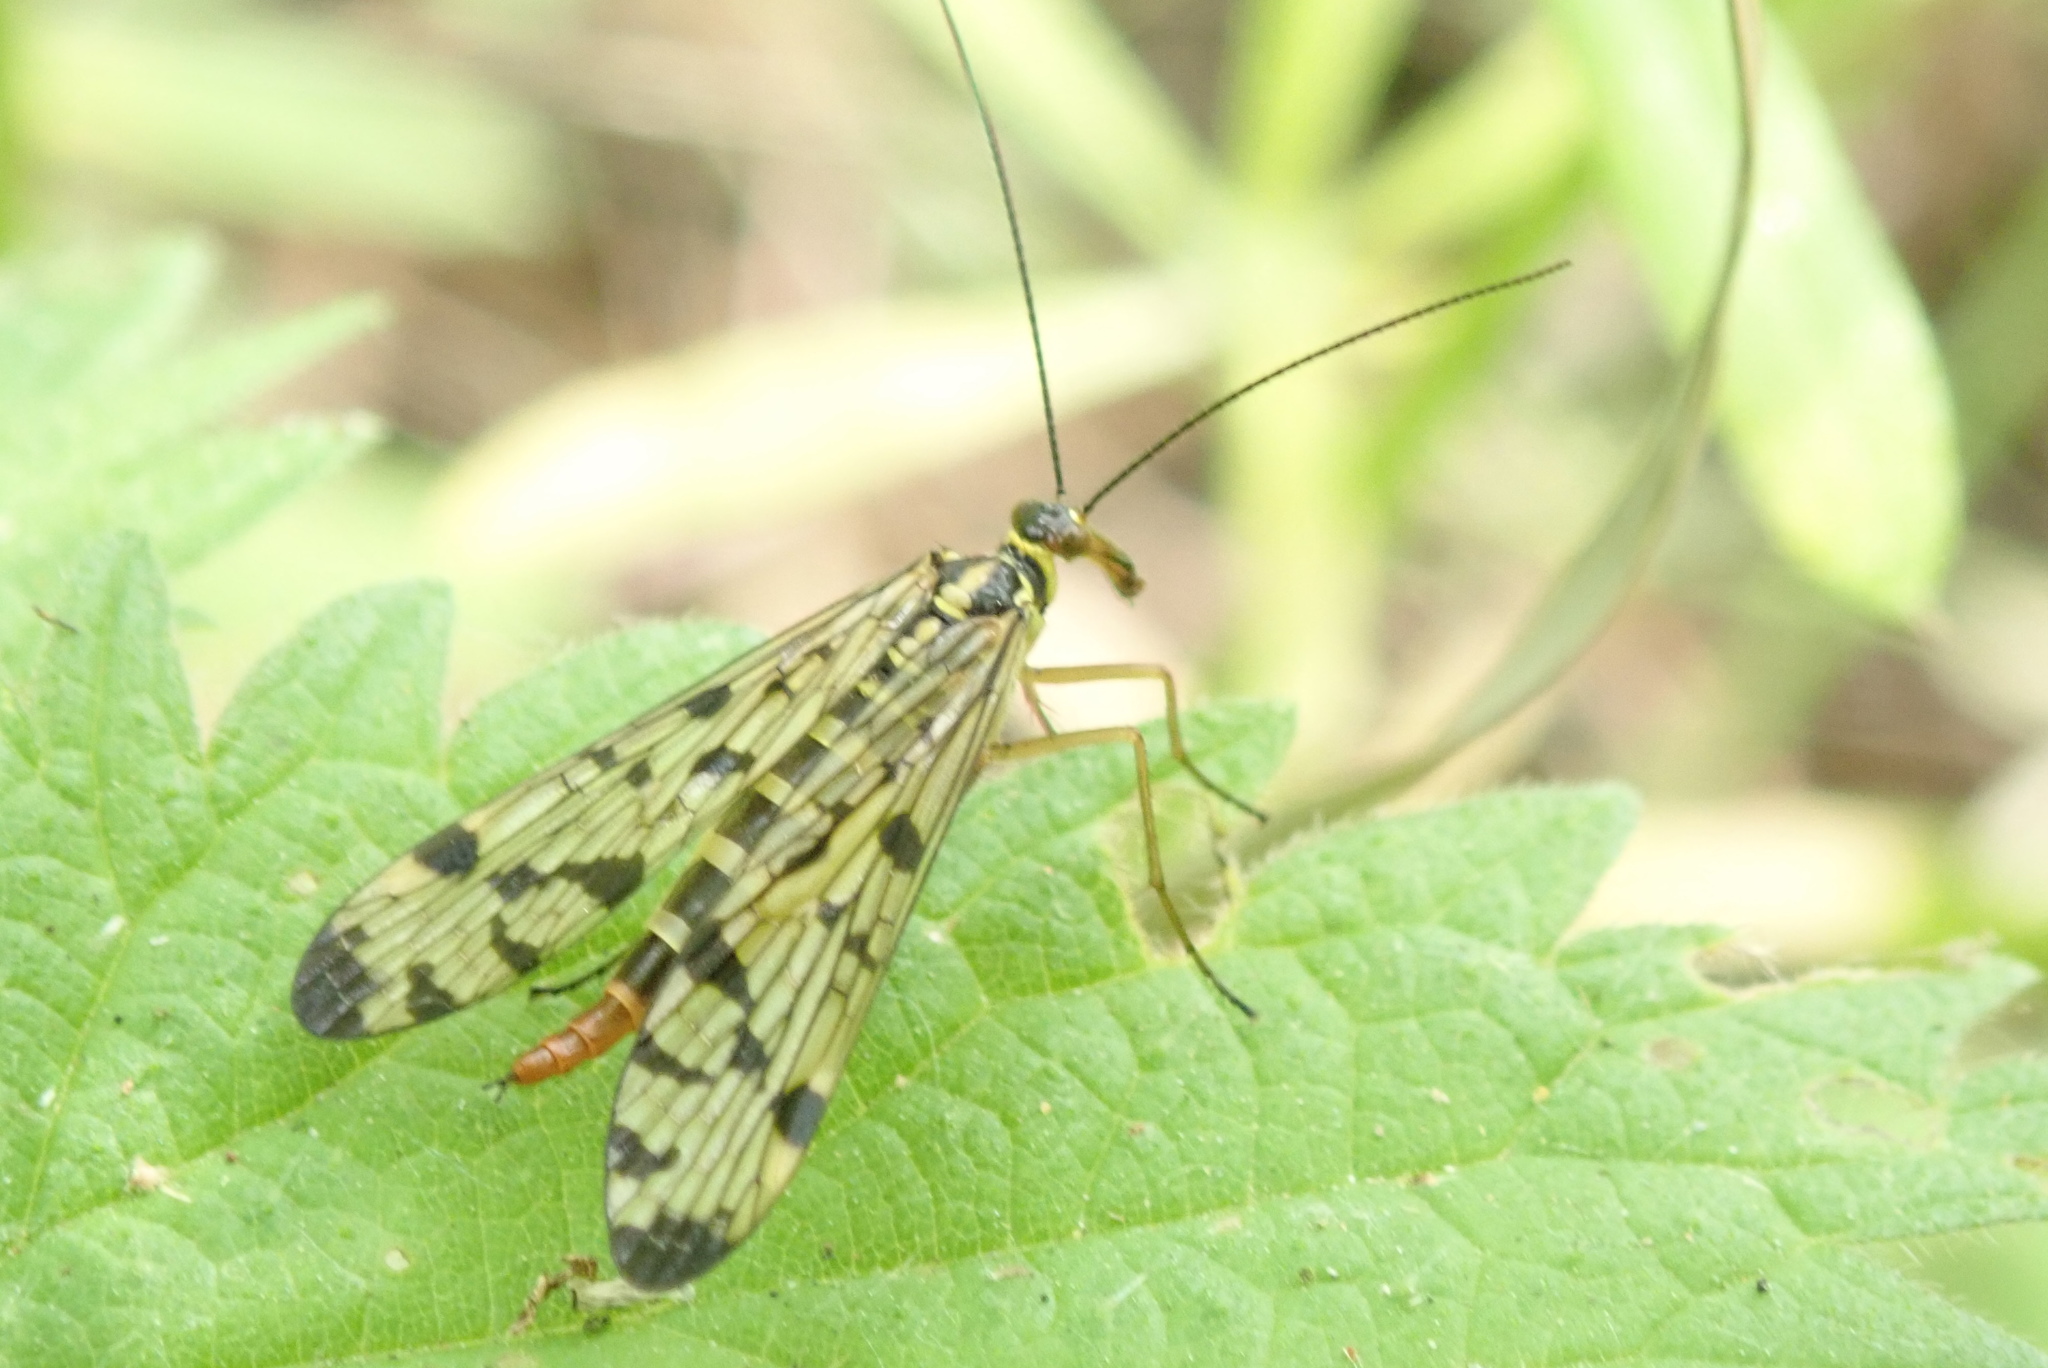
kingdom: Animalia
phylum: Arthropoda
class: Insecta
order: Mecoptera
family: Panorpidae
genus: Panorpa
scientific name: Panorpa germanica
